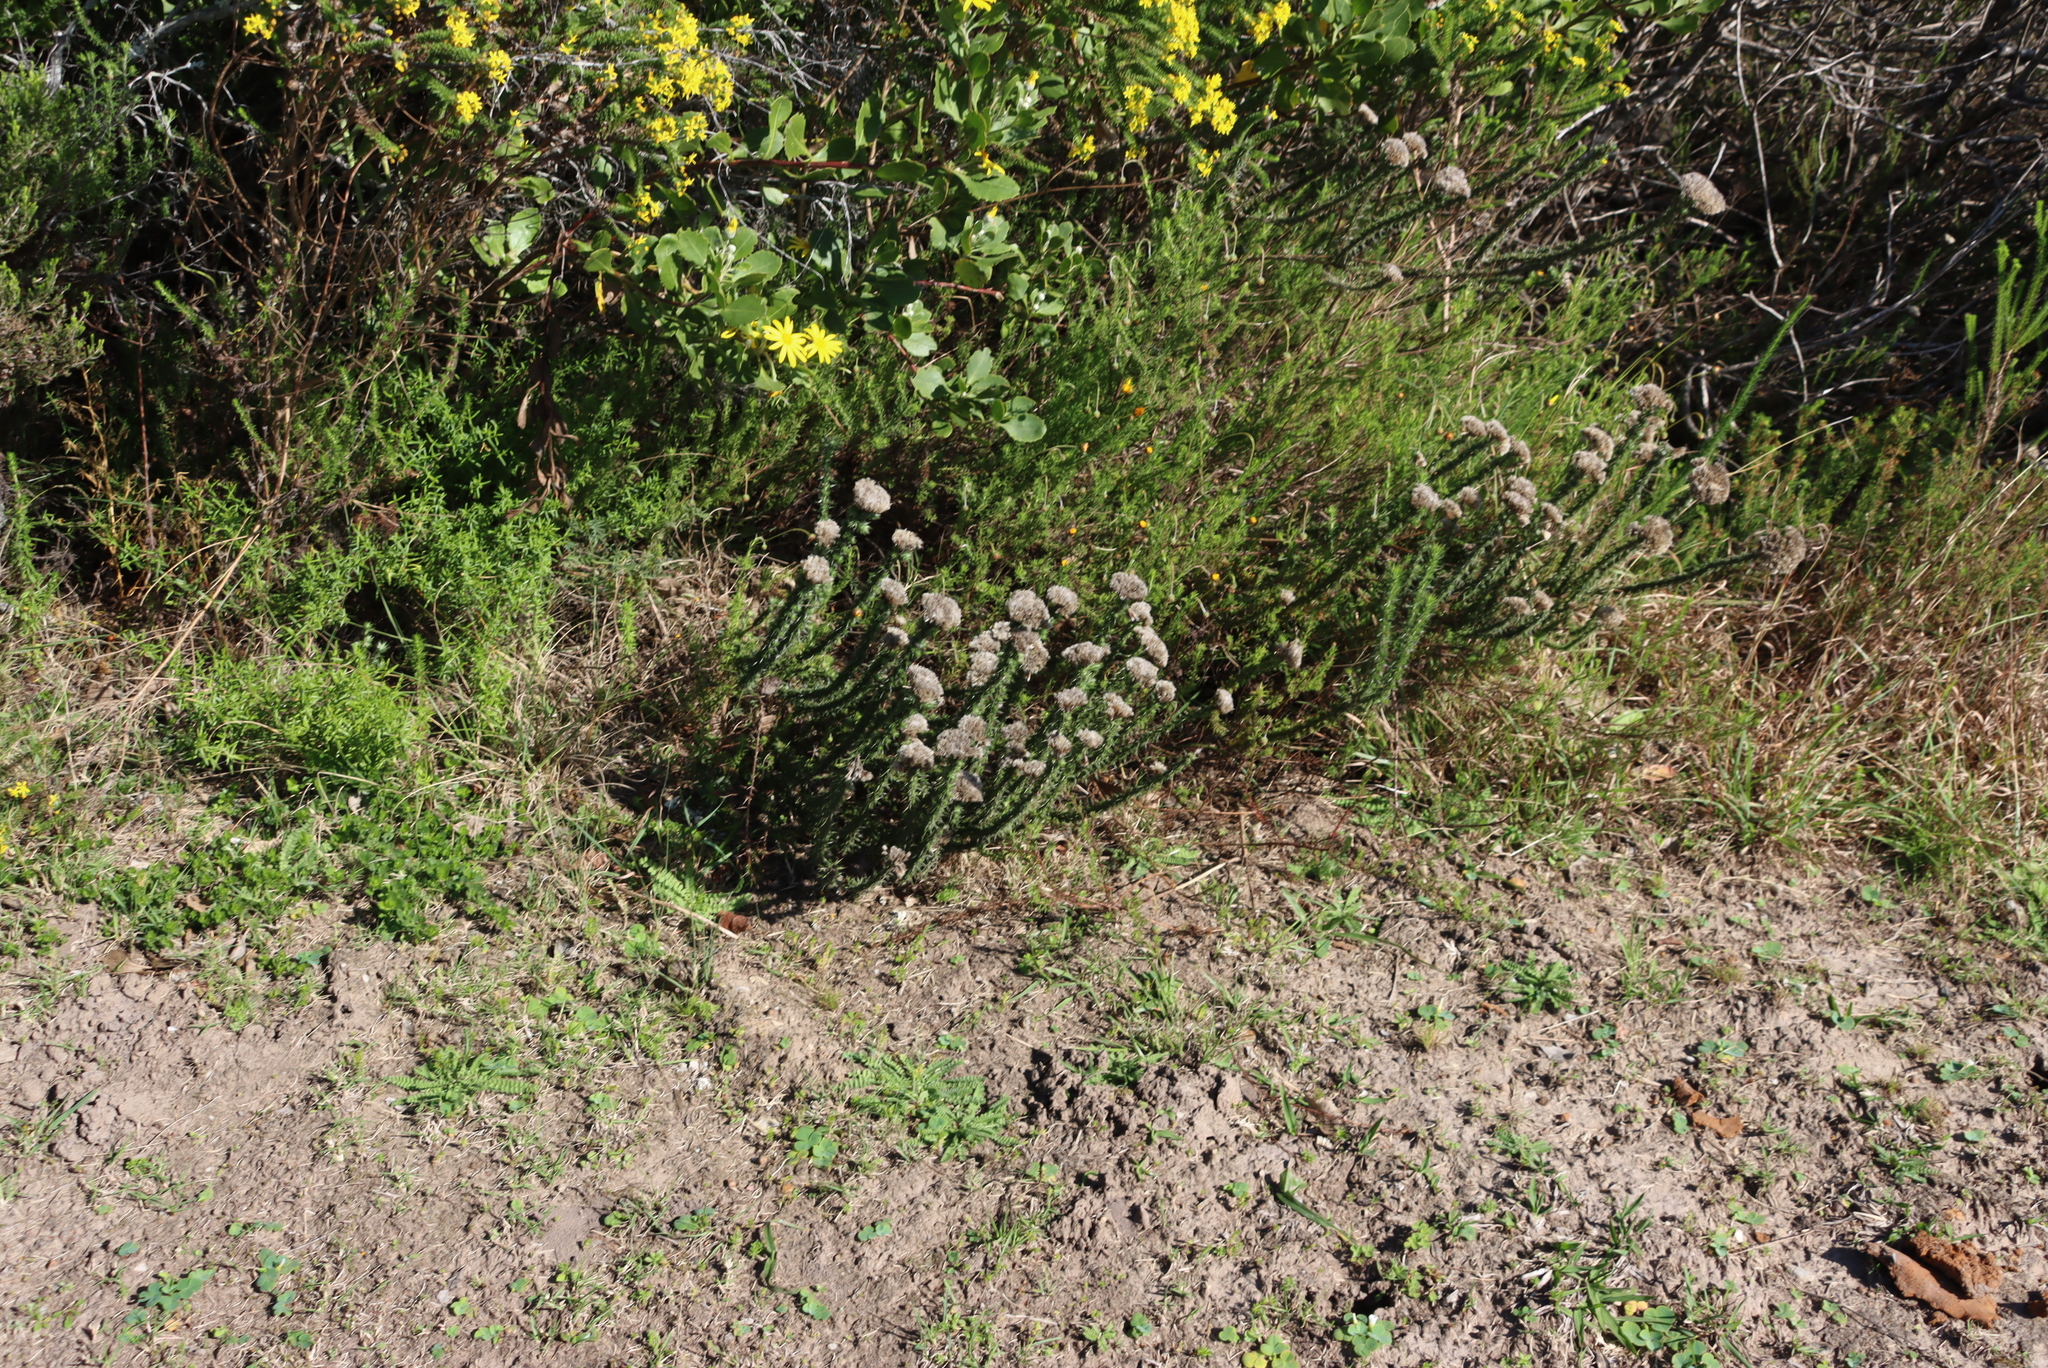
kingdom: Plantae
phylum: Tracheophyta
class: Magnoliopsida
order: Asterales
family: Asteraceae
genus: Metalasia
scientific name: Metalasia pungens
